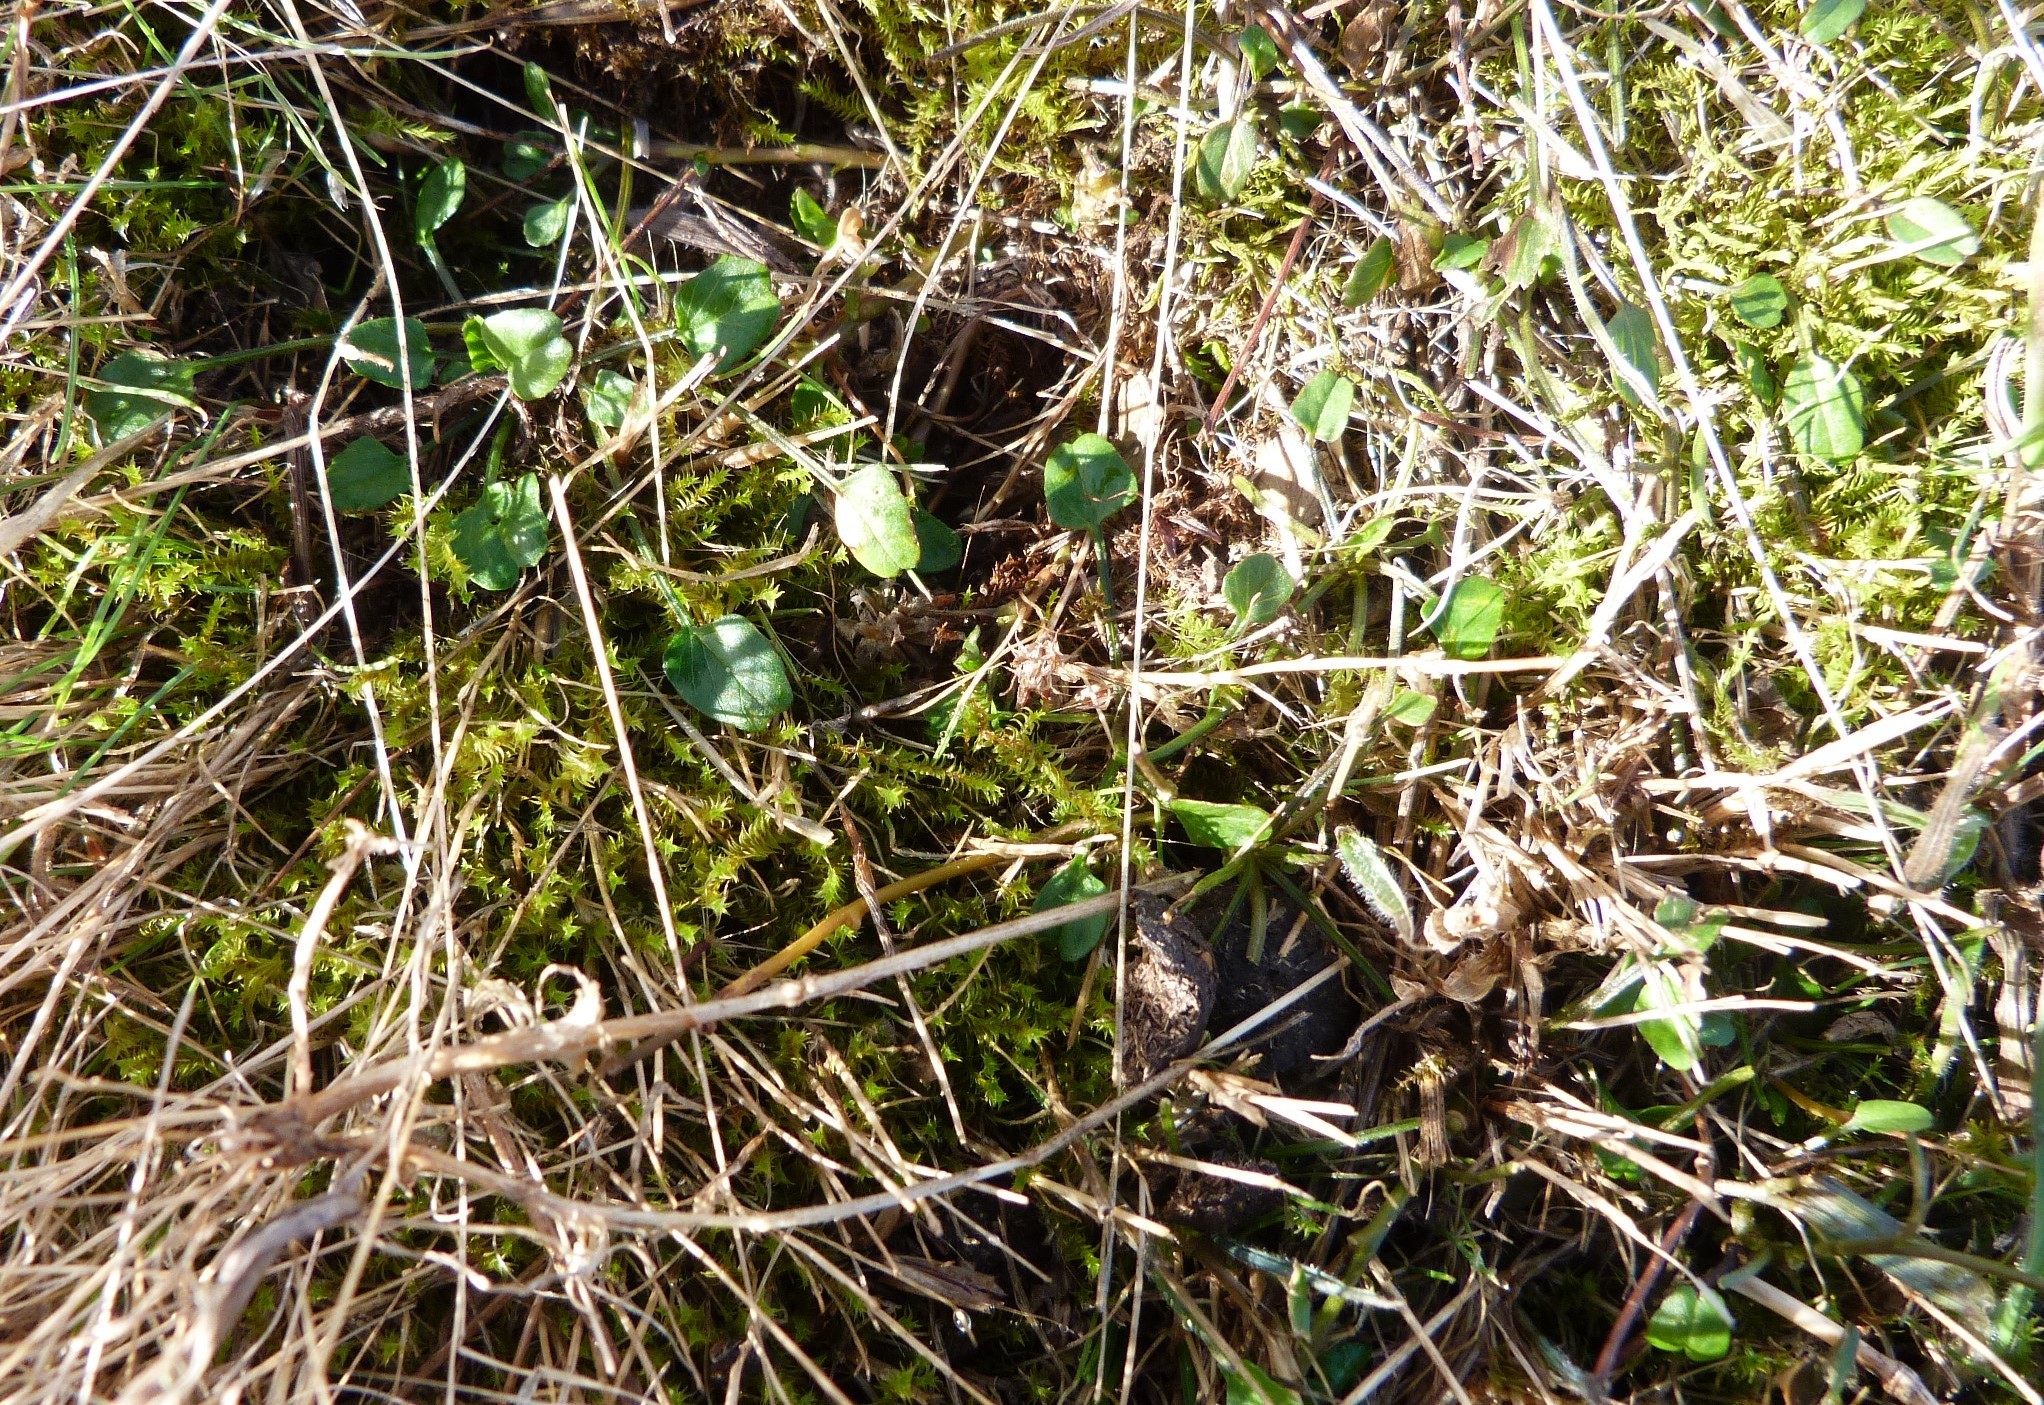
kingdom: Plantae
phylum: Tracheophyta
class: Magnoliopsida
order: Solanales
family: Convolvulaceae
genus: Convolvulus
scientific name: Convolvulus waitaha
